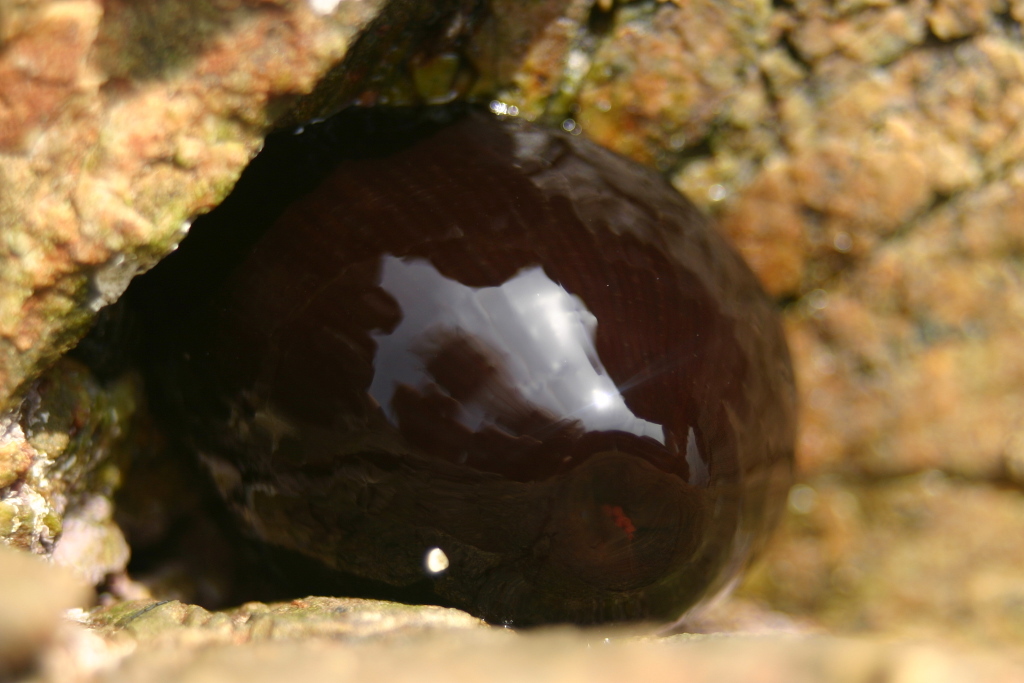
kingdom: Animalia
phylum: Cnidaria
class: Anthozoa
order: Actiniaria
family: Actiniidae
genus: Actinia
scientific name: Actinia tenebrosa
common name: Waratah anemone
